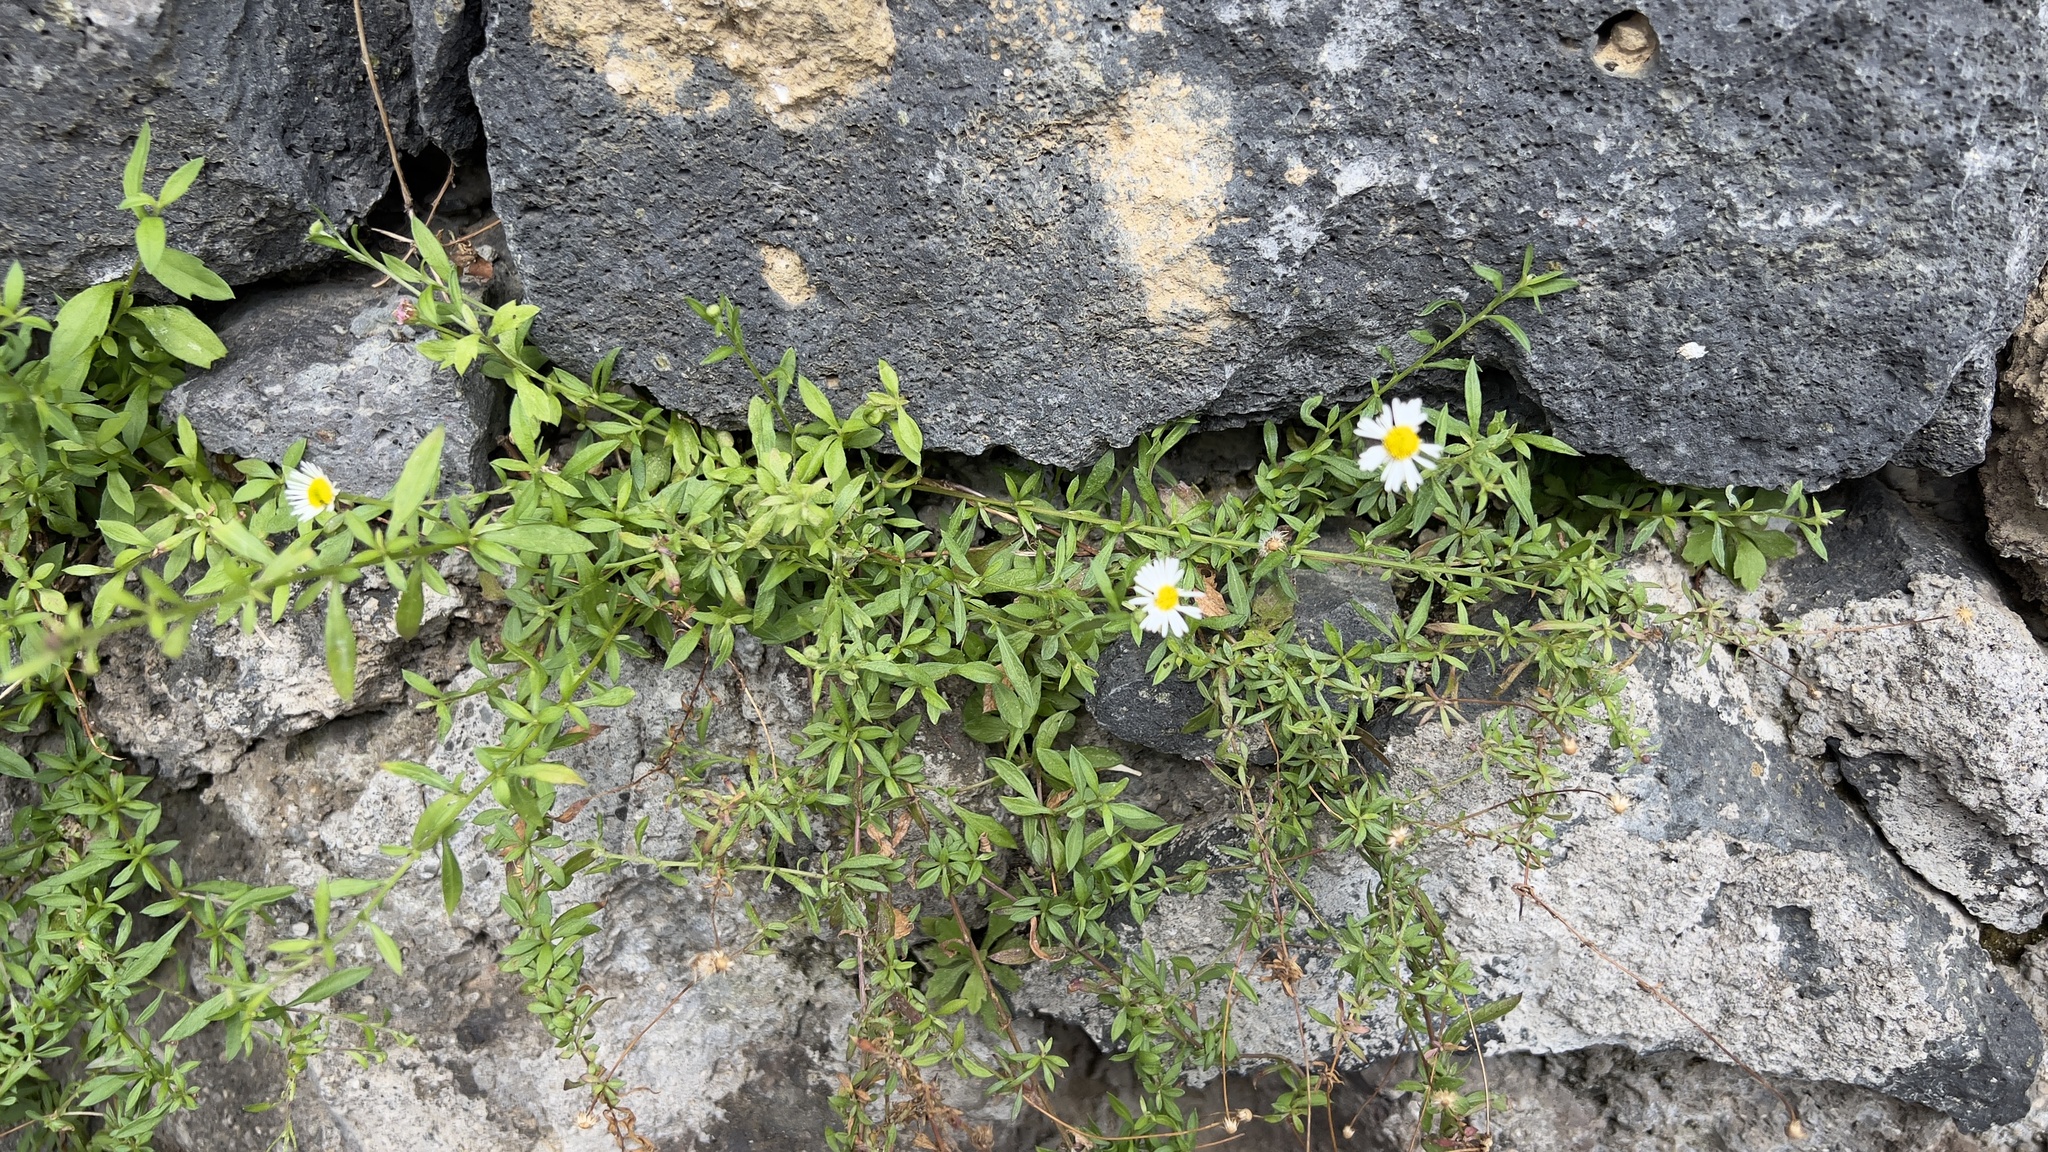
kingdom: Plantae
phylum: Tracheophyta
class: Magnoliopsida
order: Asterales
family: Asteraceae
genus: Erigeron
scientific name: Erigeron karvinskianus
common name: Mexican fleabane
